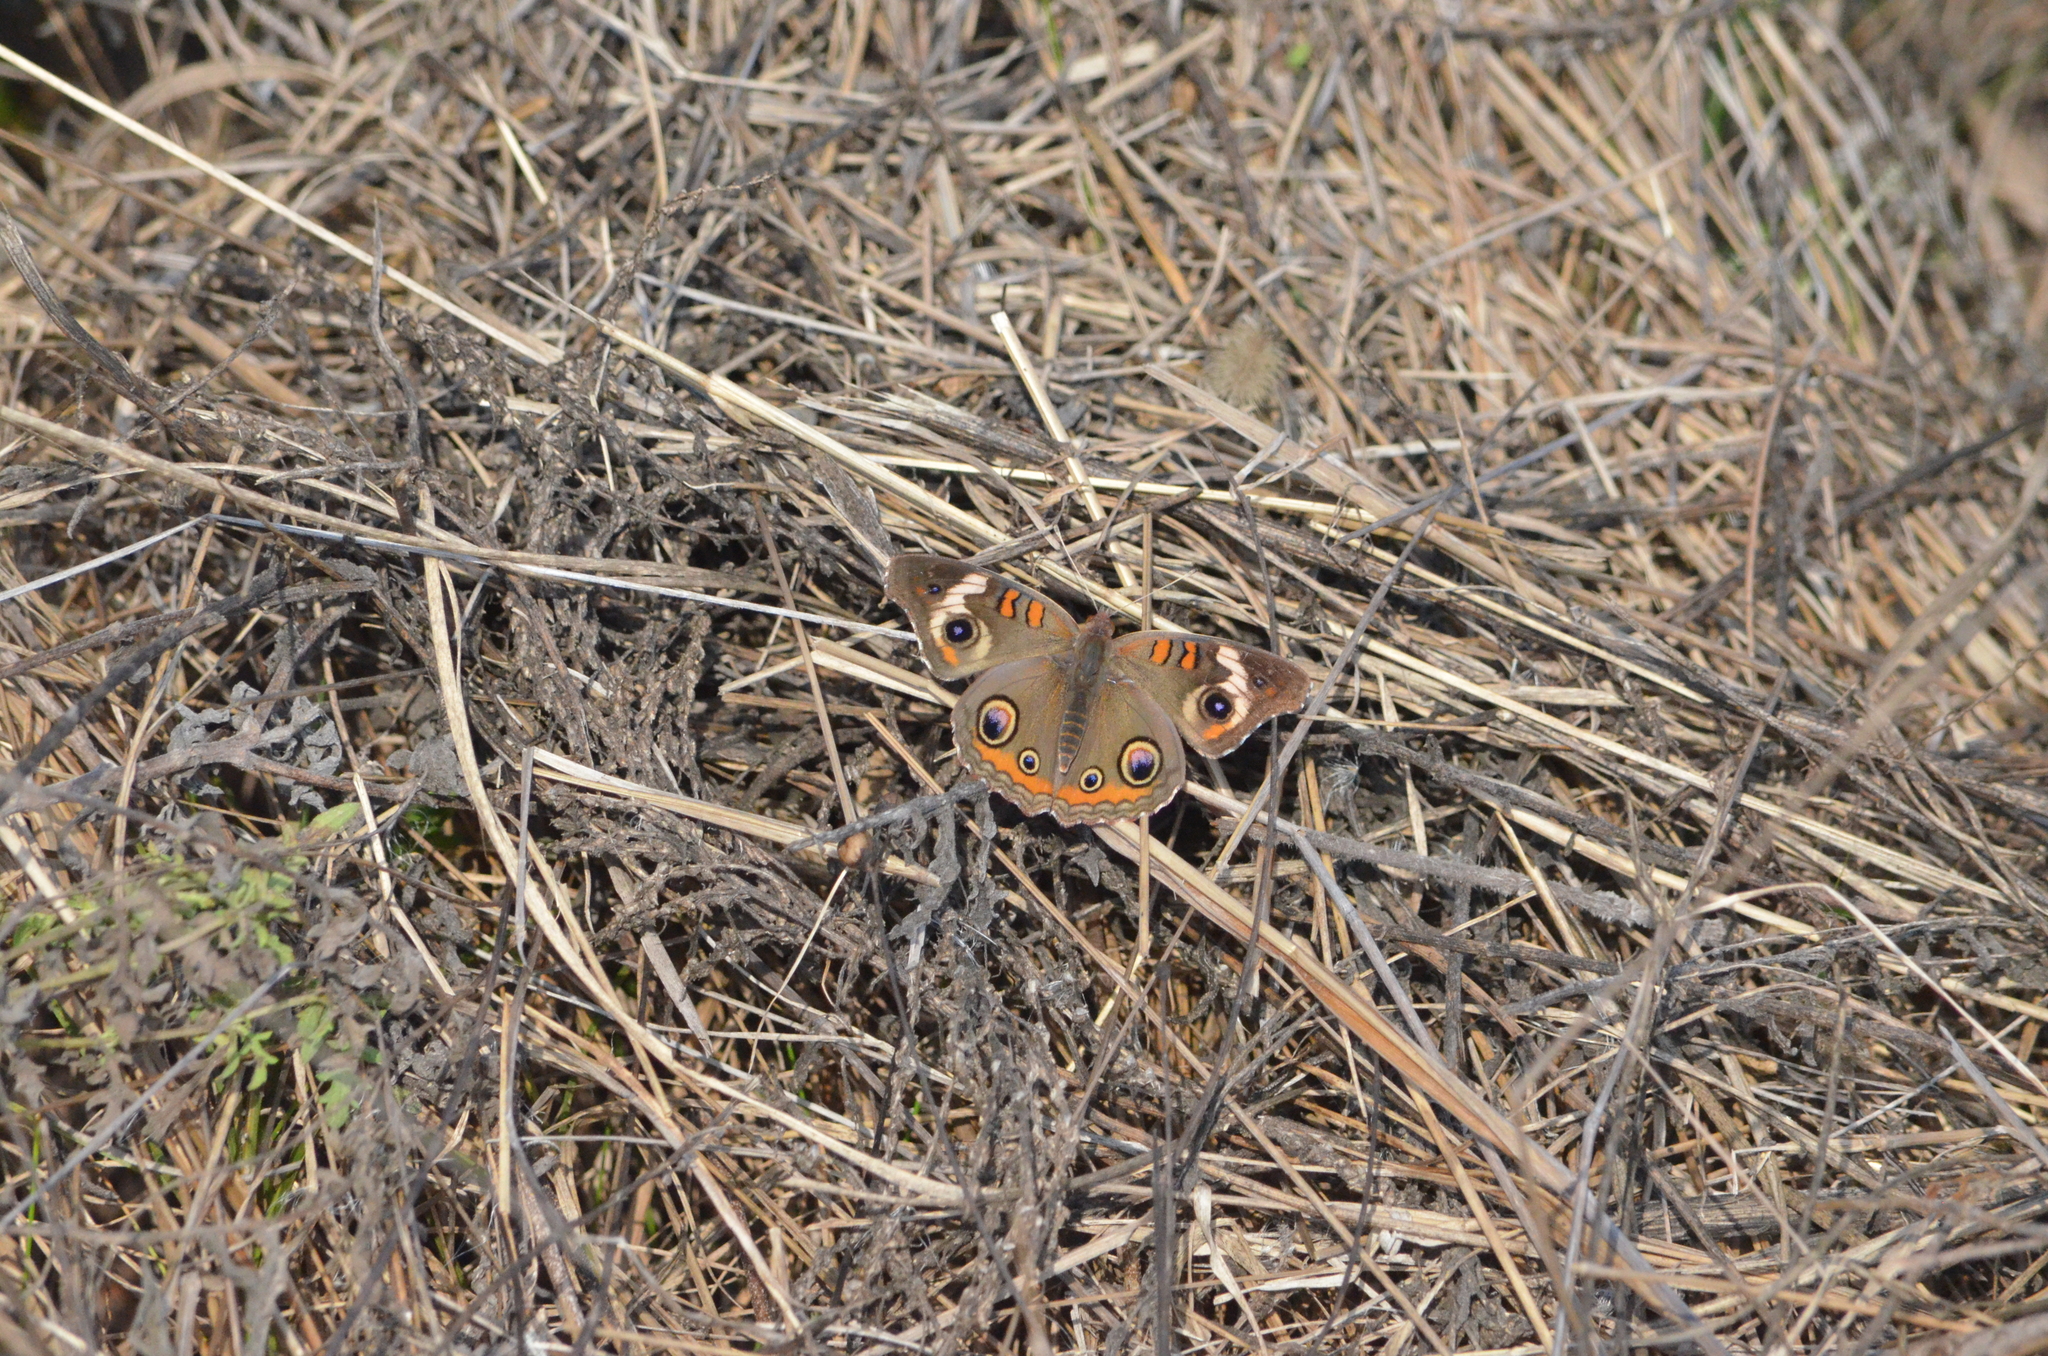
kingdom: Animalia
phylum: Arthropoda
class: Insecta
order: Lepidoptera
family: Nymphalidae
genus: Junonia
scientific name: Junonia coenia
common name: Common buckeye
